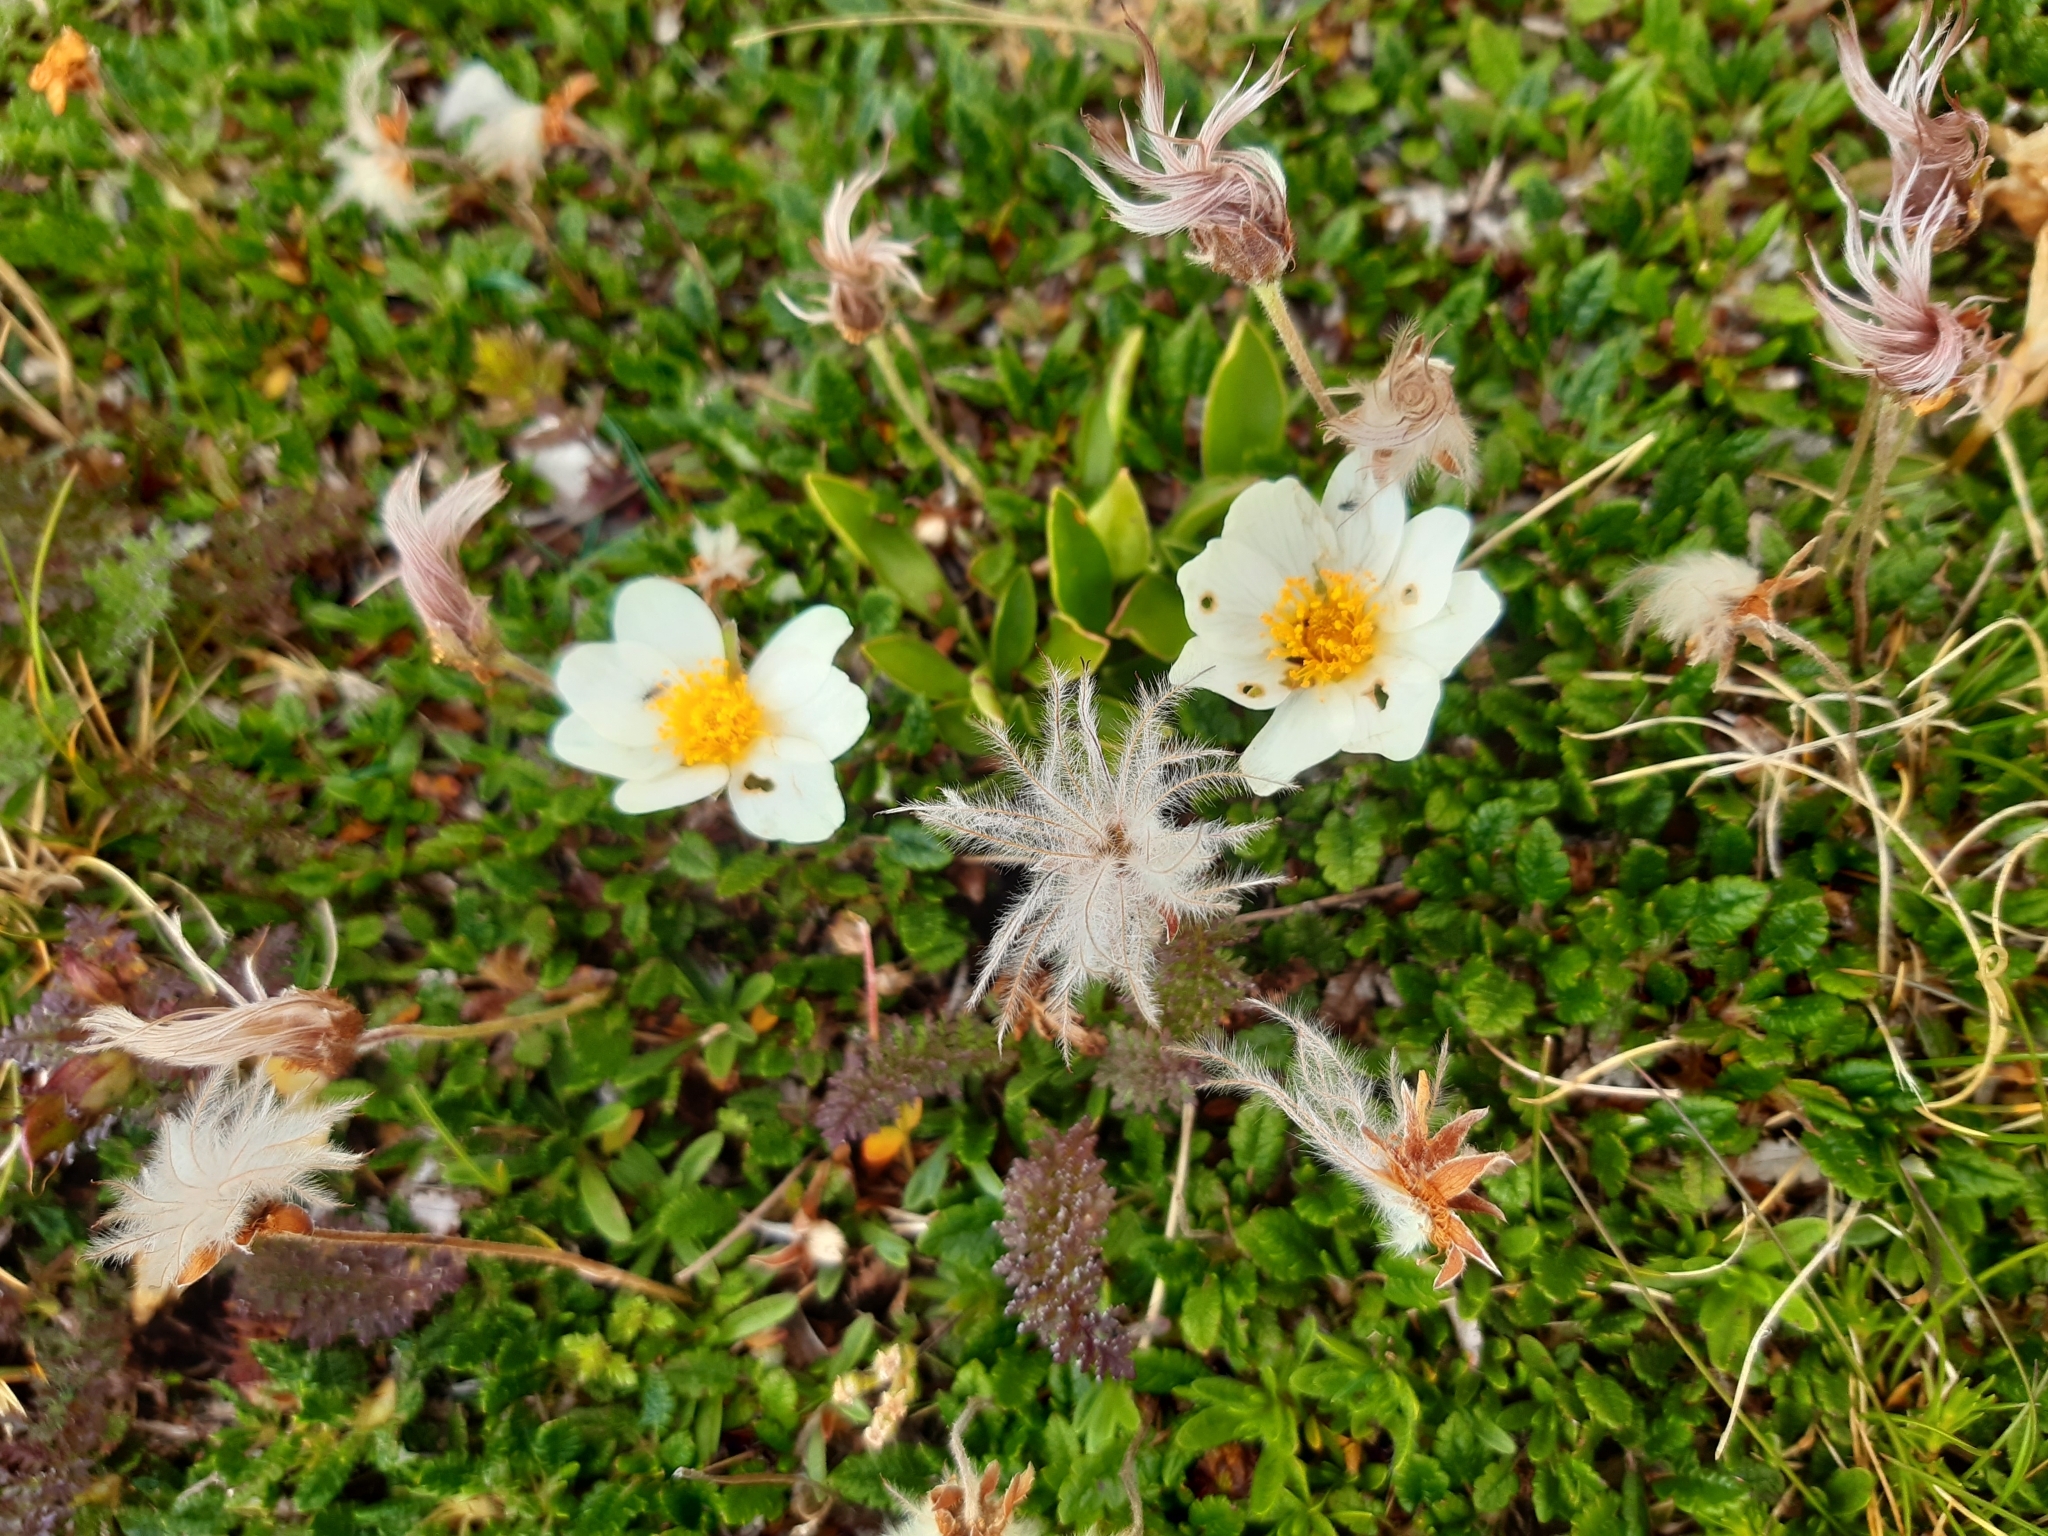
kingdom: Plantae
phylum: Tracheophyta
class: Magnoliopsida
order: Rosales
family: Rosaceae
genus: Dryas
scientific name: Dryas octopetala
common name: Eight-petal mountain-avens
